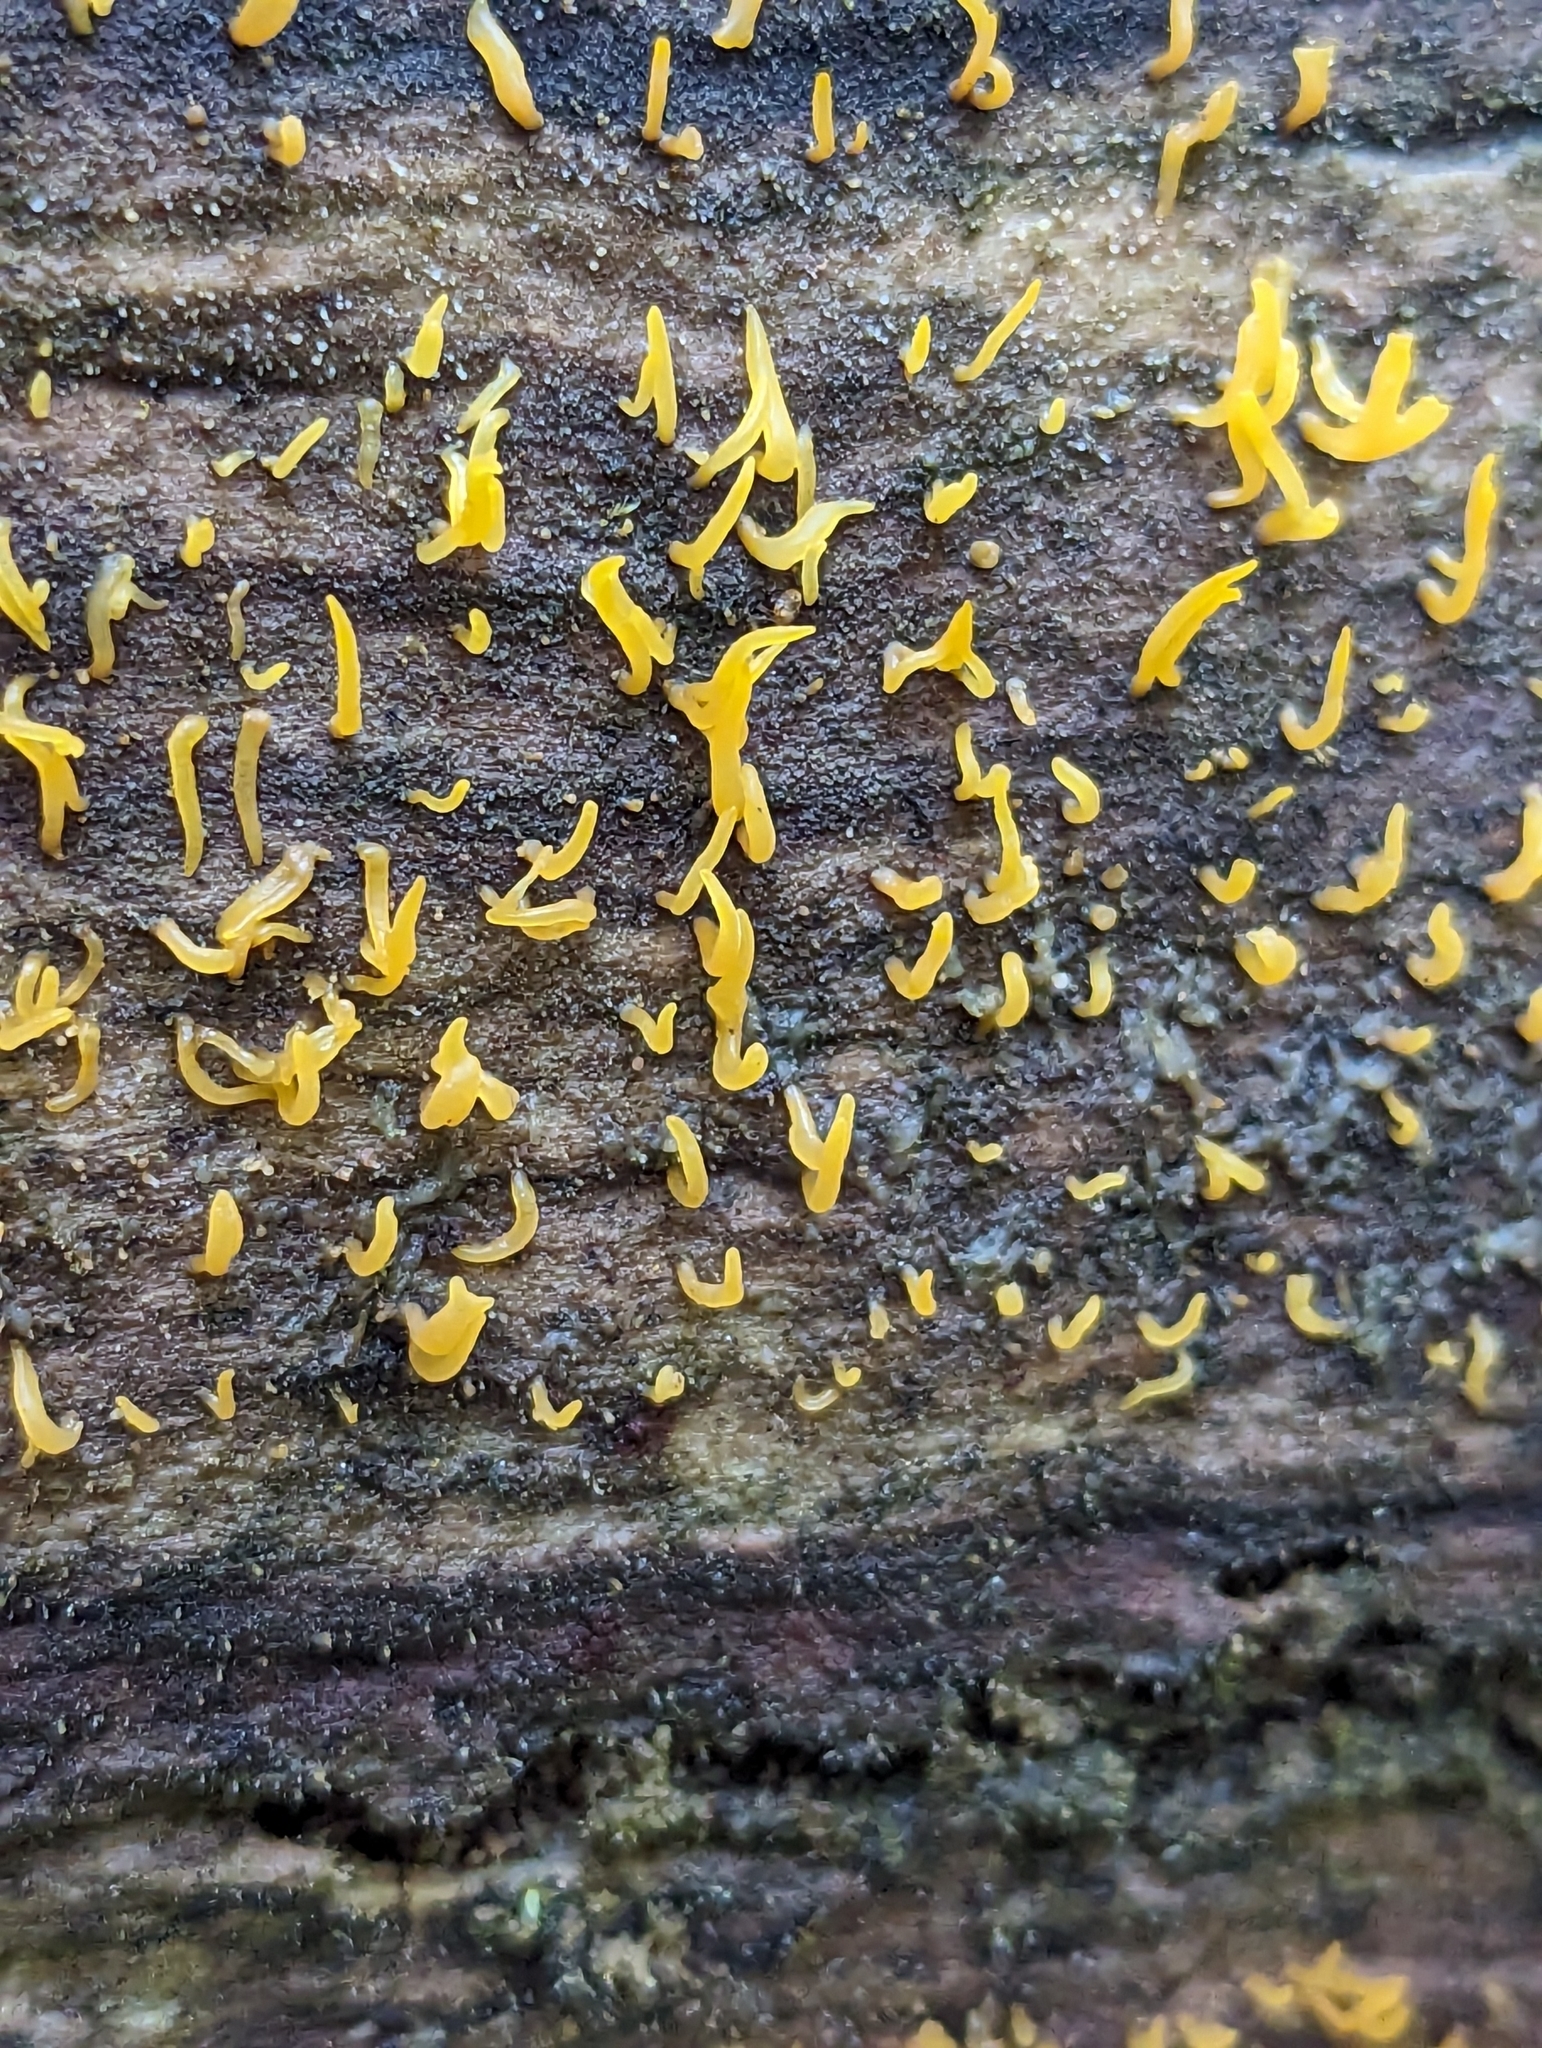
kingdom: Fungi
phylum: Basidiomycota
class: Dacrymycetes
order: Dacrymycetales
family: Dacrymycetaceae
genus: Calocera
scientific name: Calocera cornea
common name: Small stagshorn
